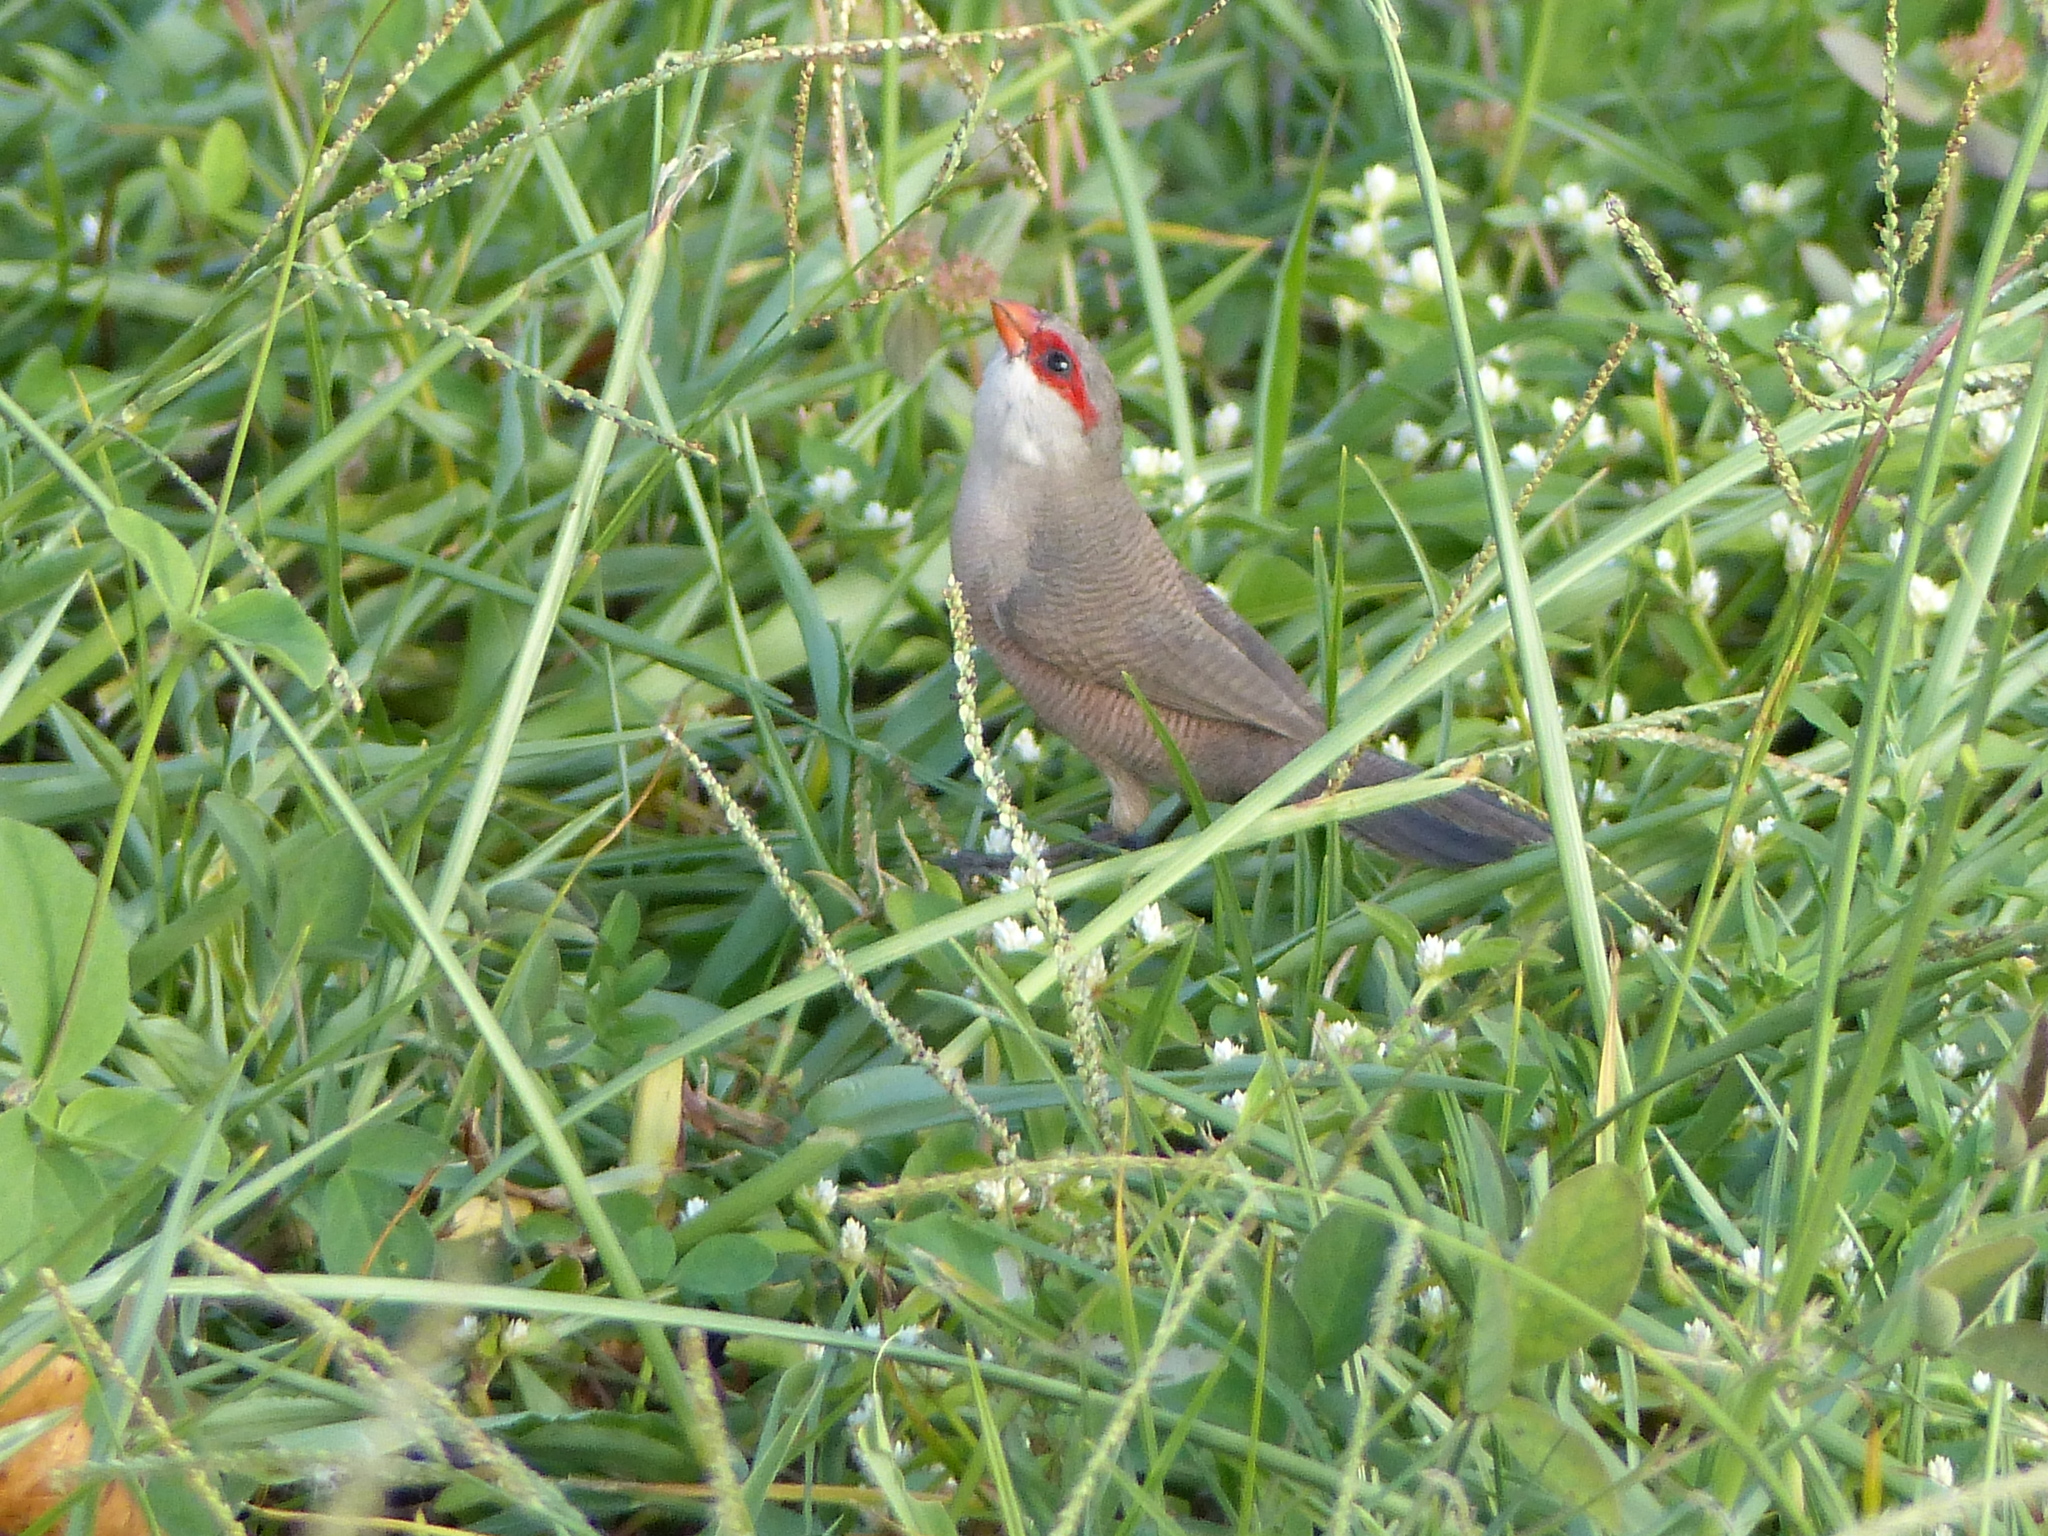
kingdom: Animalia
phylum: Chordata
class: Aves
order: Passeriformes
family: Estrildidae
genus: Estrilda
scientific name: Estrilda astrild
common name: Common waxbill
